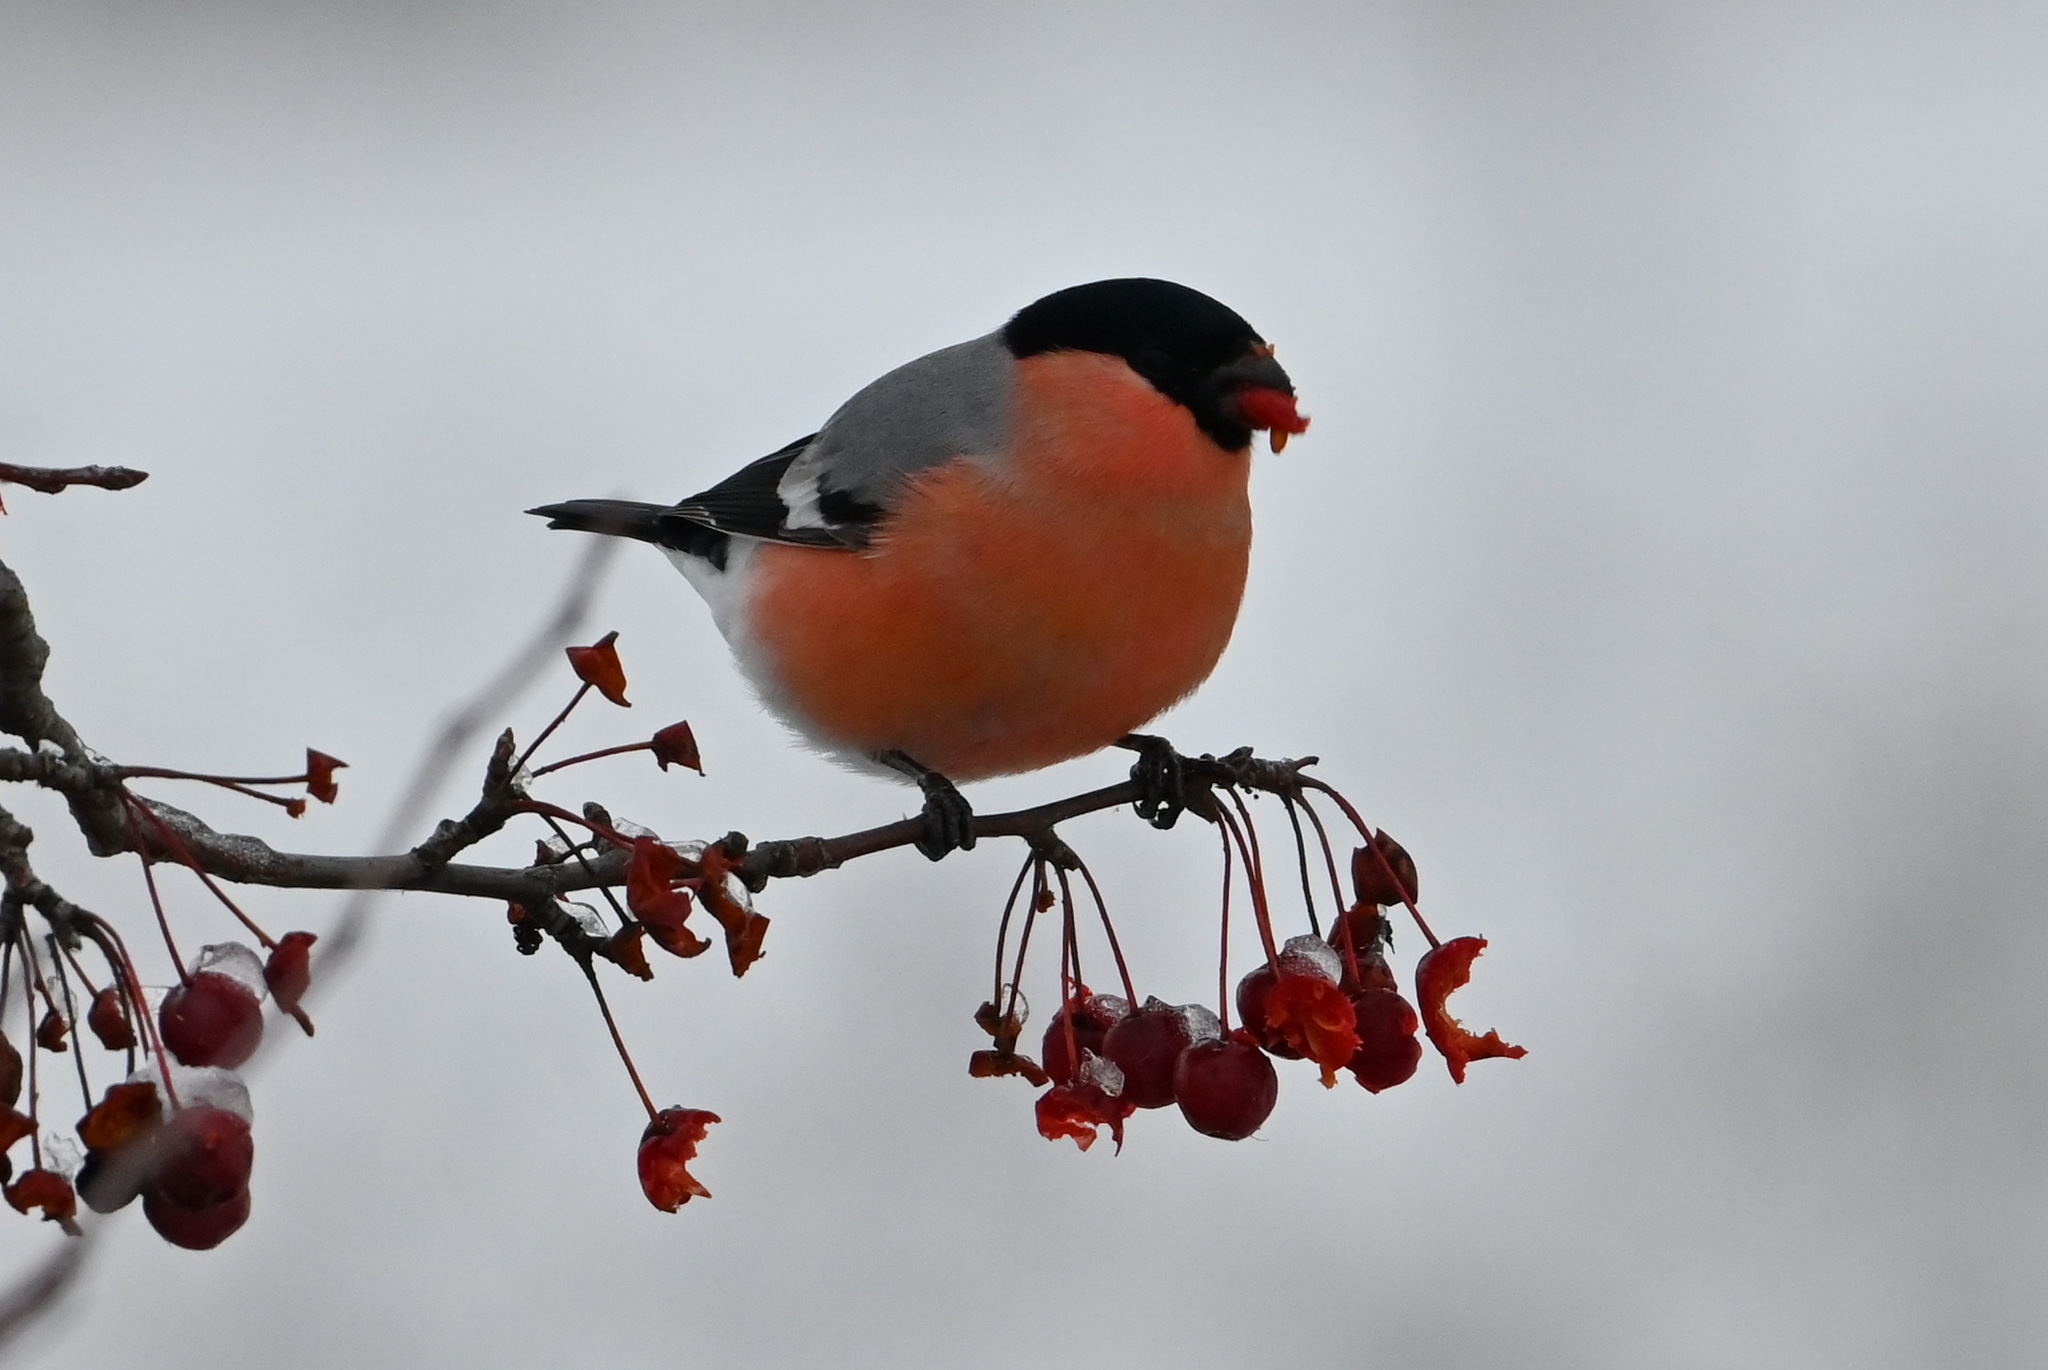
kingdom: Animalia
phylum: Chordata
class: Aves
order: Passeriformes
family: Fringillidae
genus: Pyrrhula
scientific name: Pyrrhula pyrrhula
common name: Eurasian bullfinch
